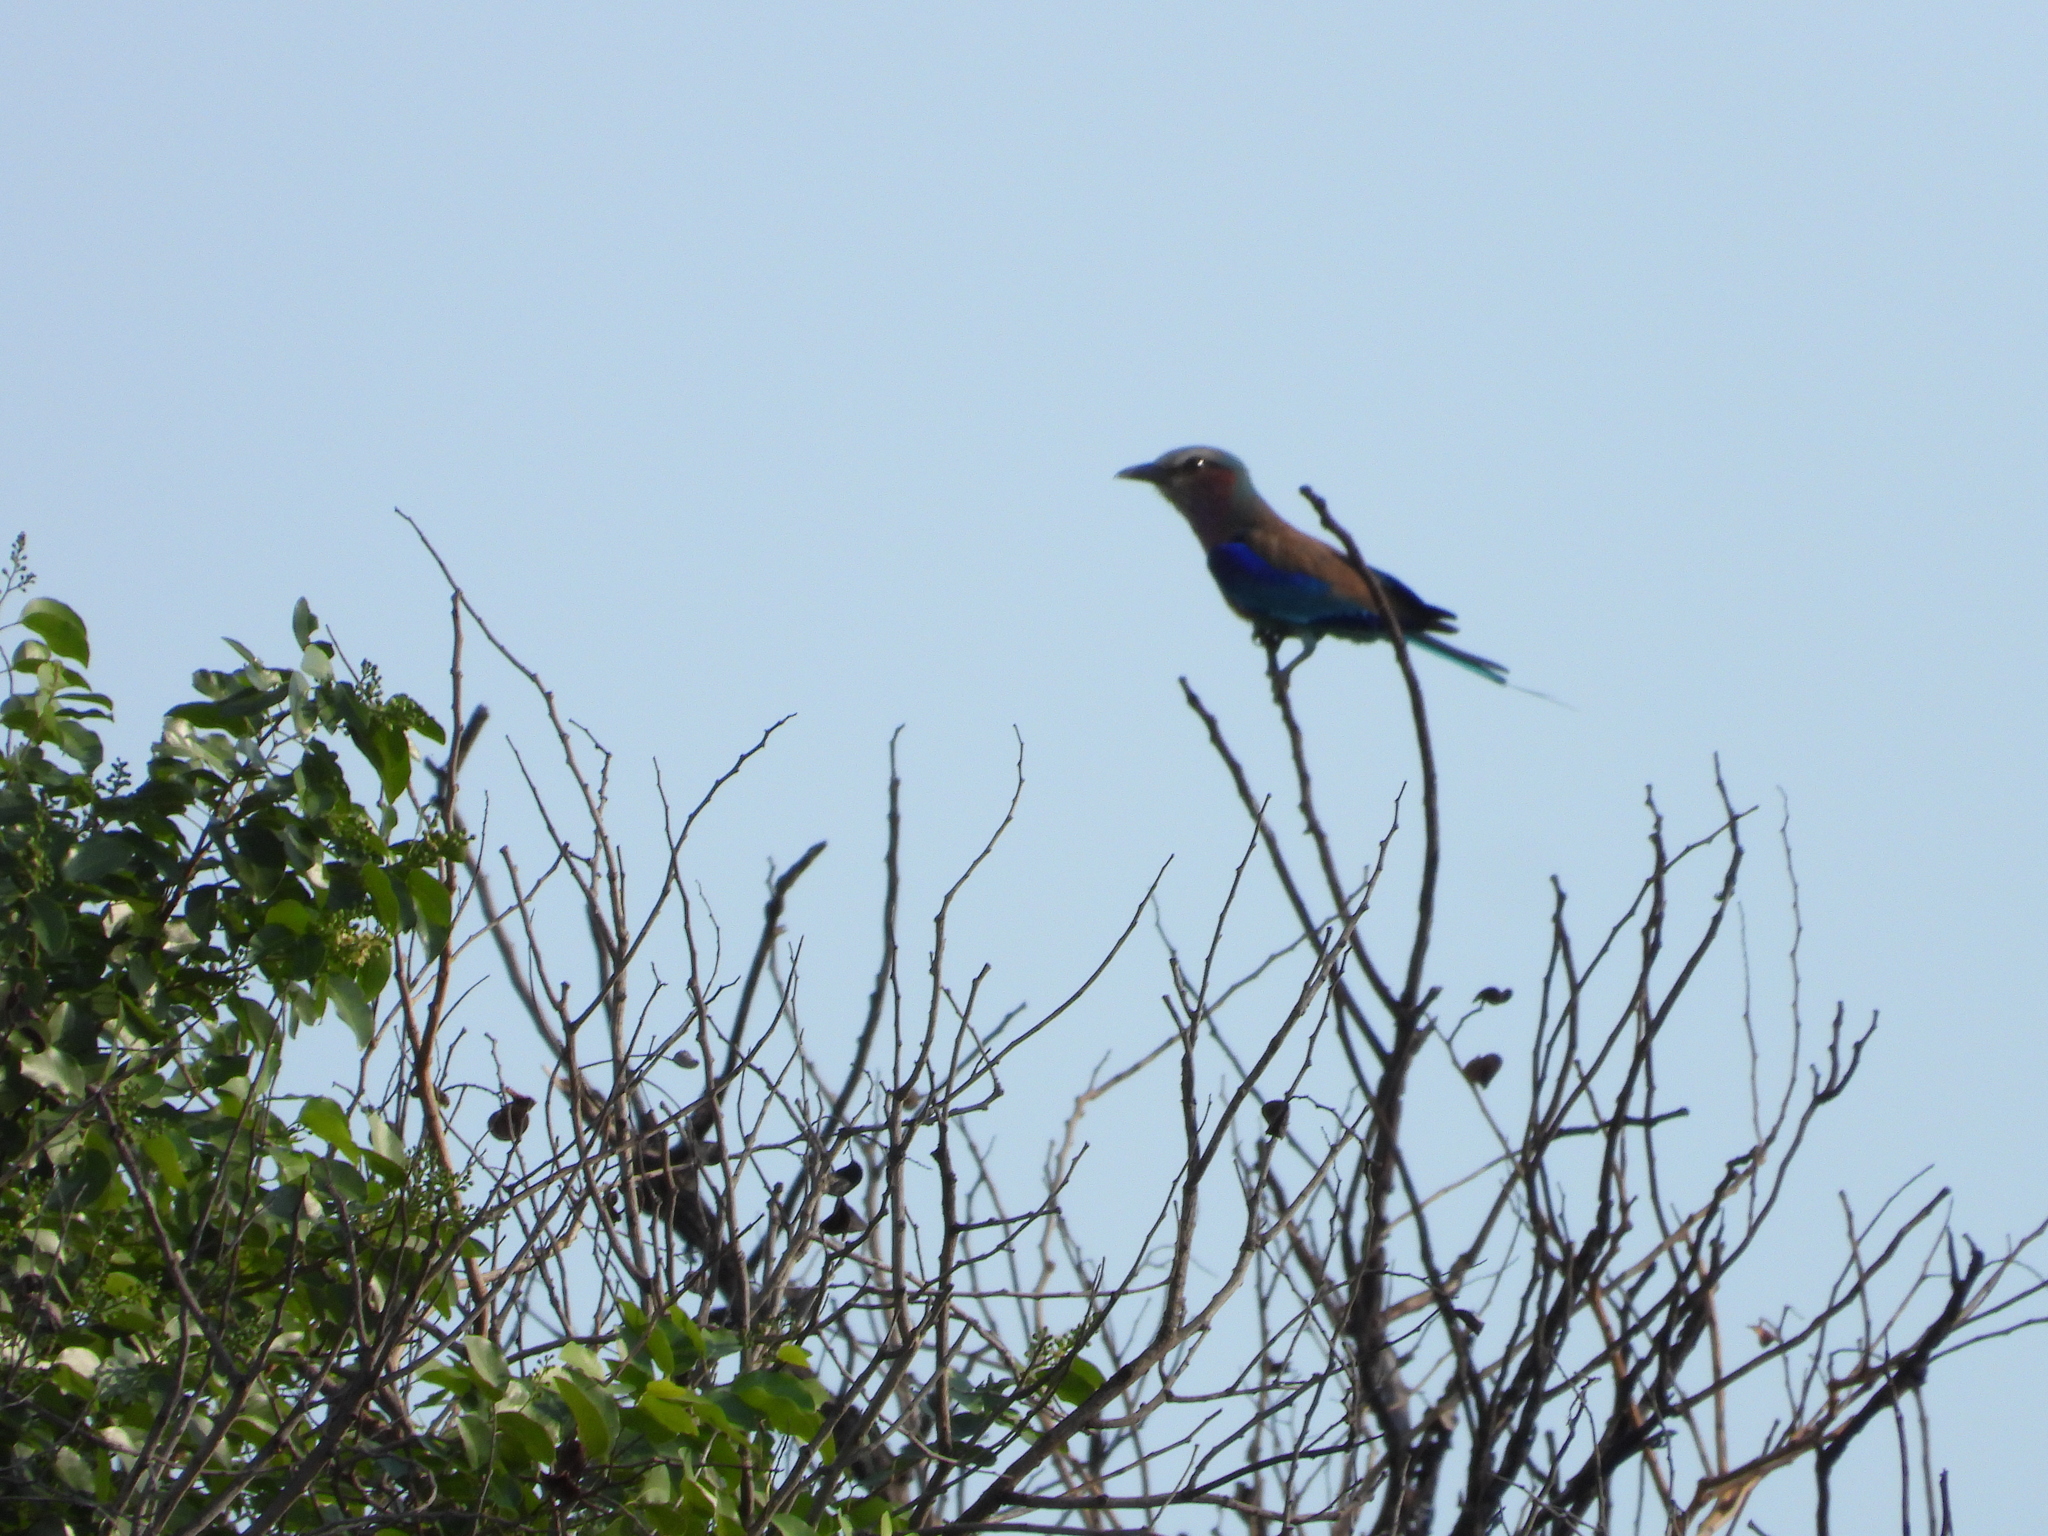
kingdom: Animalia
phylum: Chordata
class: Aves
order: Coraciiformes
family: Coraciidae
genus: Coracias
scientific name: Coracias caudatus
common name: Lilac-breasted roller
